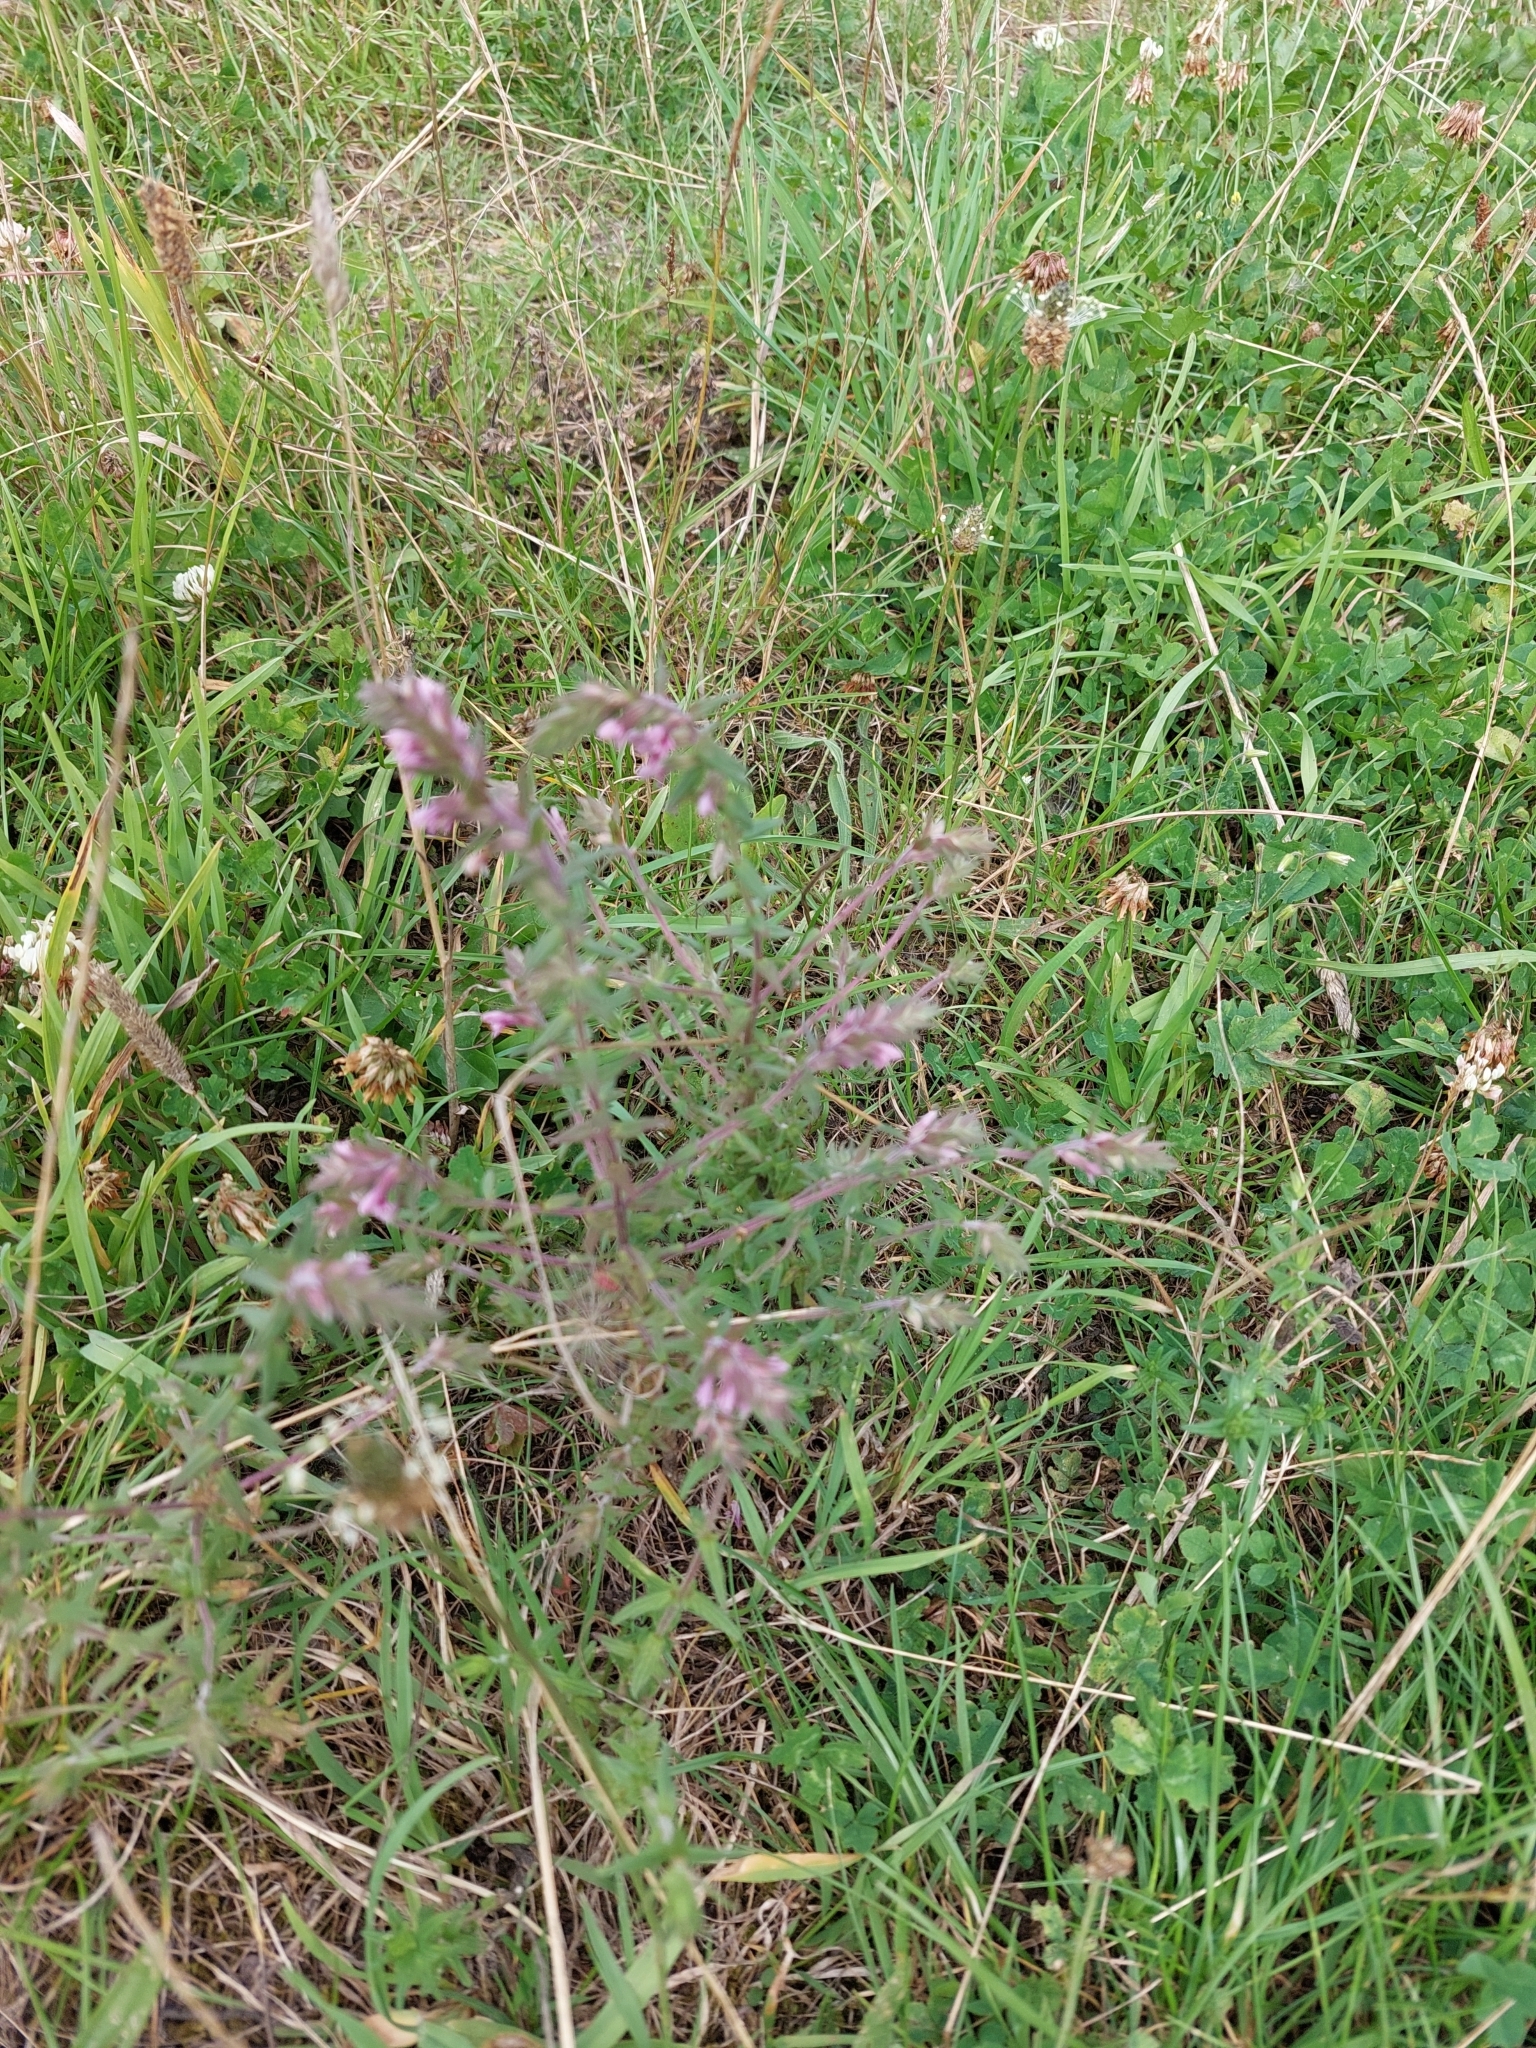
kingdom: Plantae
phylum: Tracheophyta
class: Magnoliopsida
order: Lamiales
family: Orobanchaceae
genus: Odontites
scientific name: Odontites vernus
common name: Red bartsia
